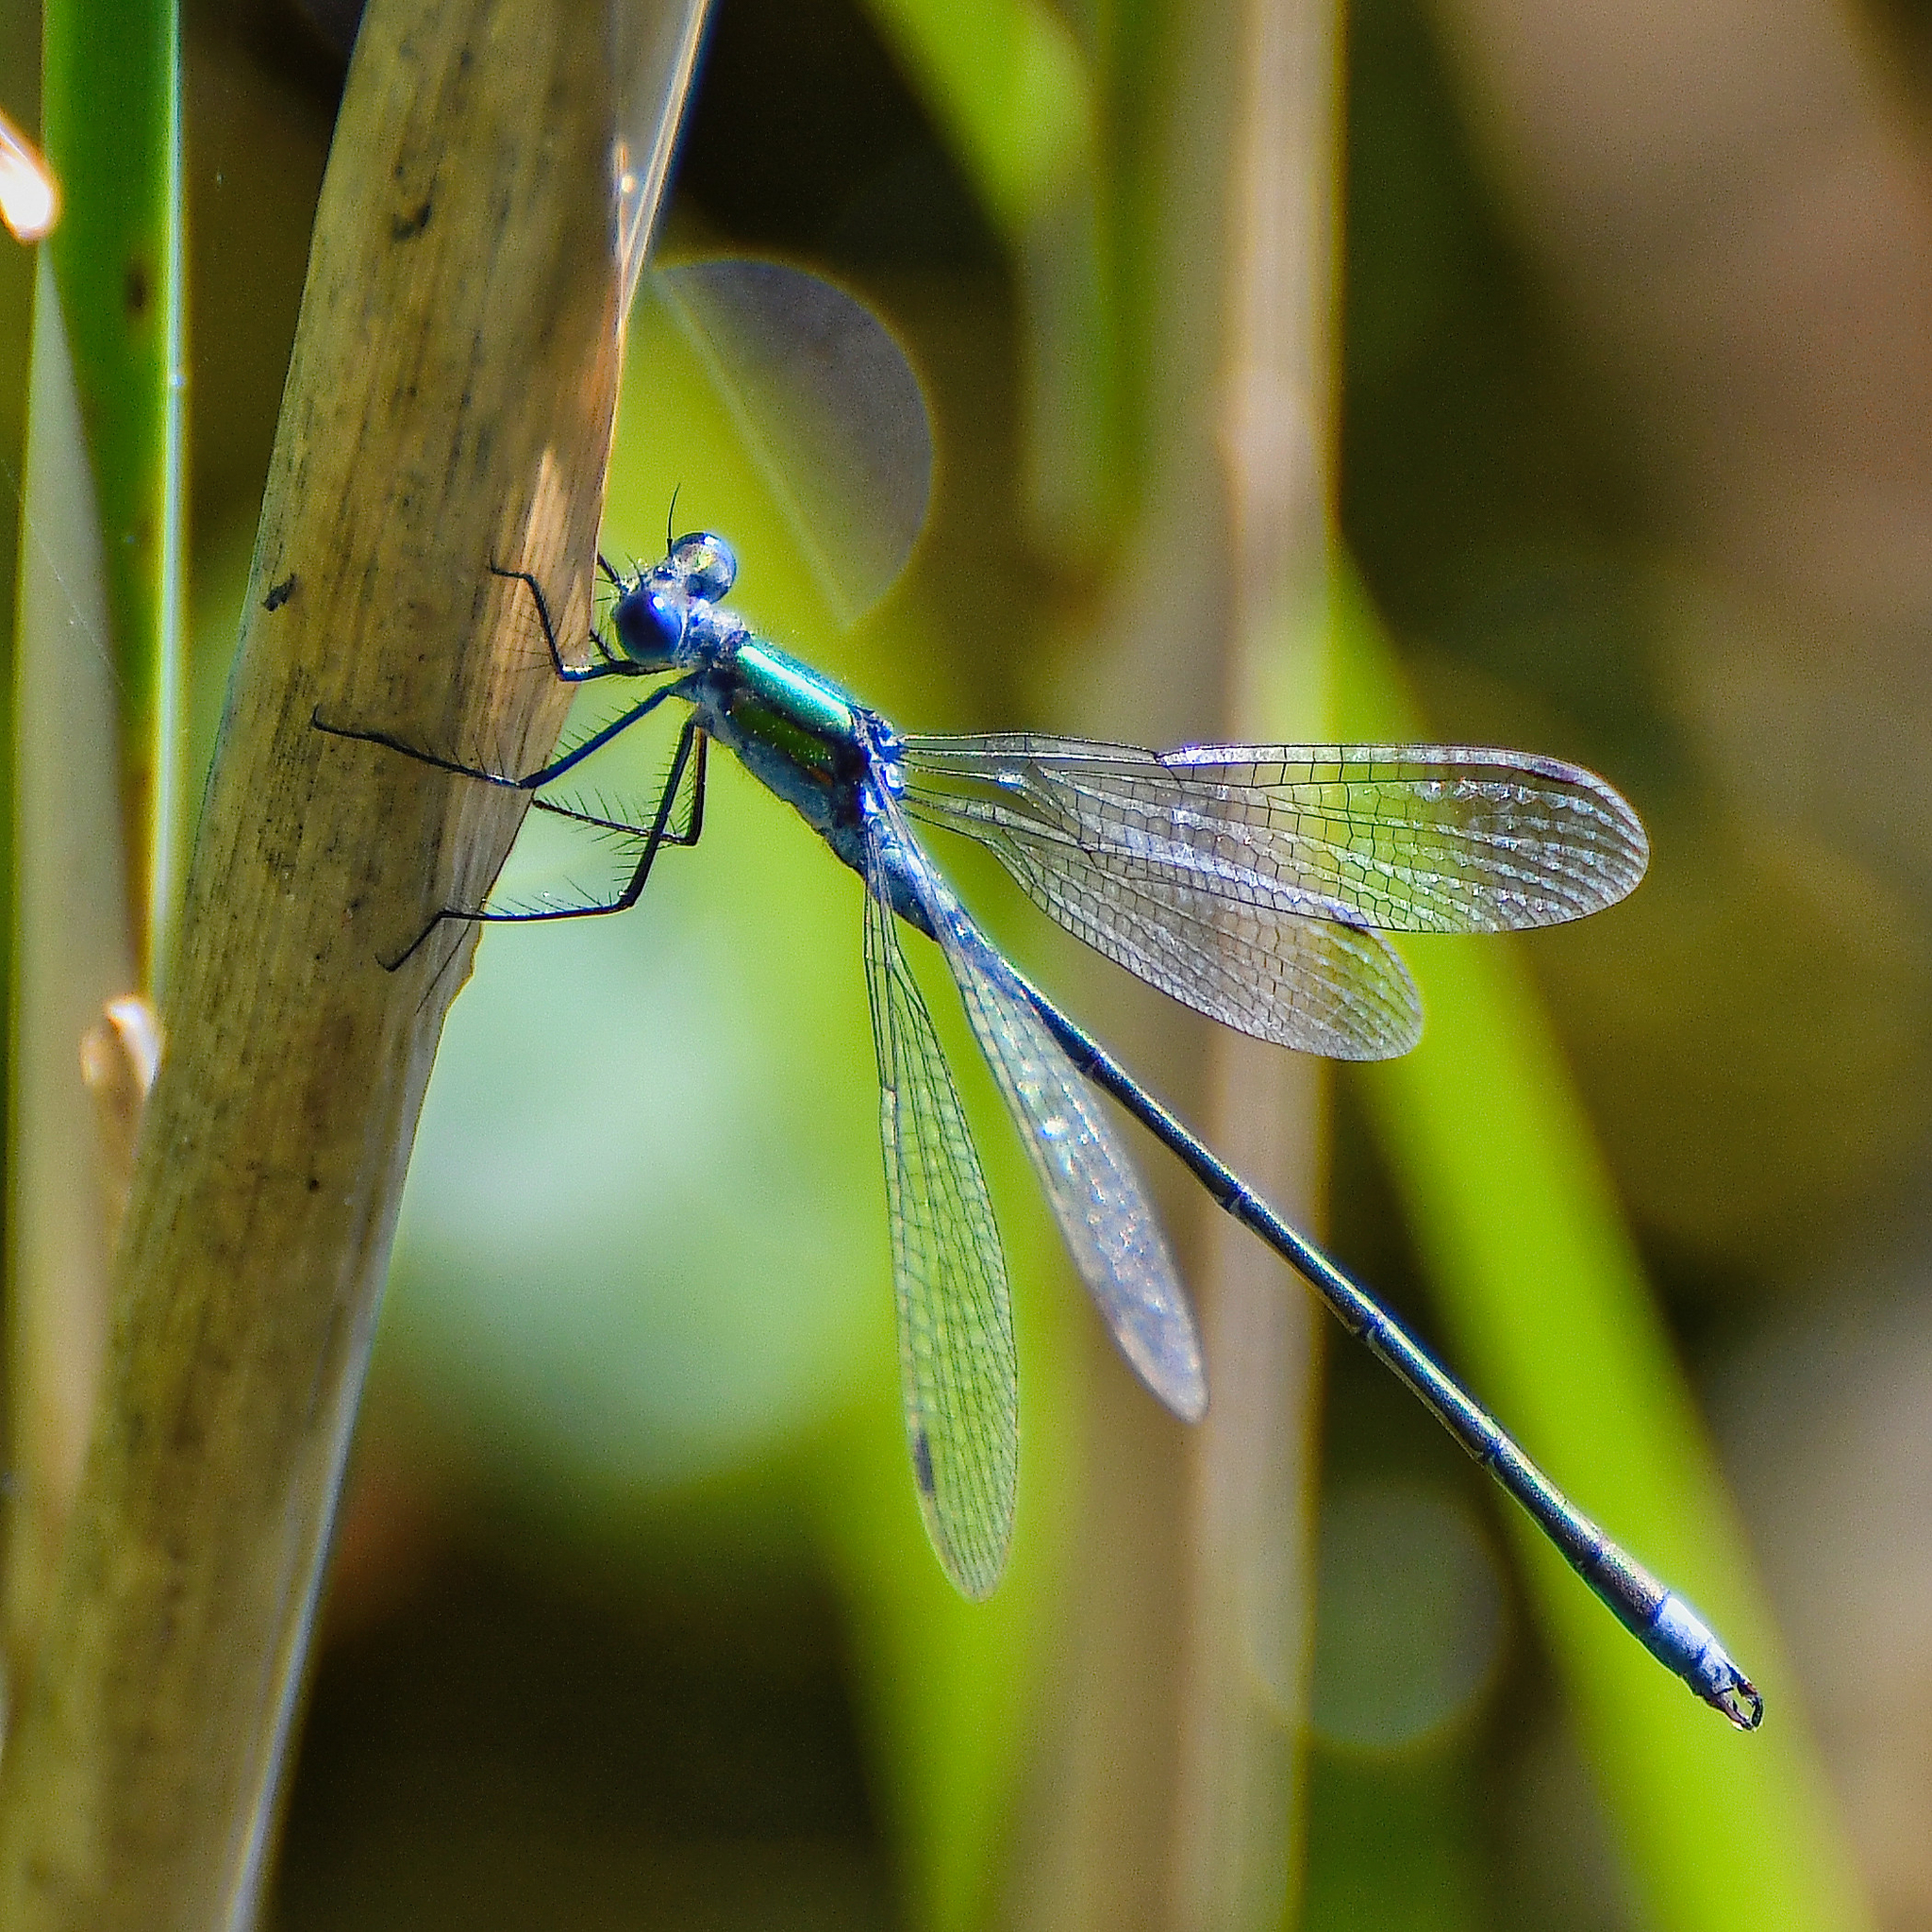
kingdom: Animalia
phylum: Arthropoda
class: Insecta
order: Odonata
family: Lestidae
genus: Lestes
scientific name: Lestes sponsa
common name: Common spreadwing
